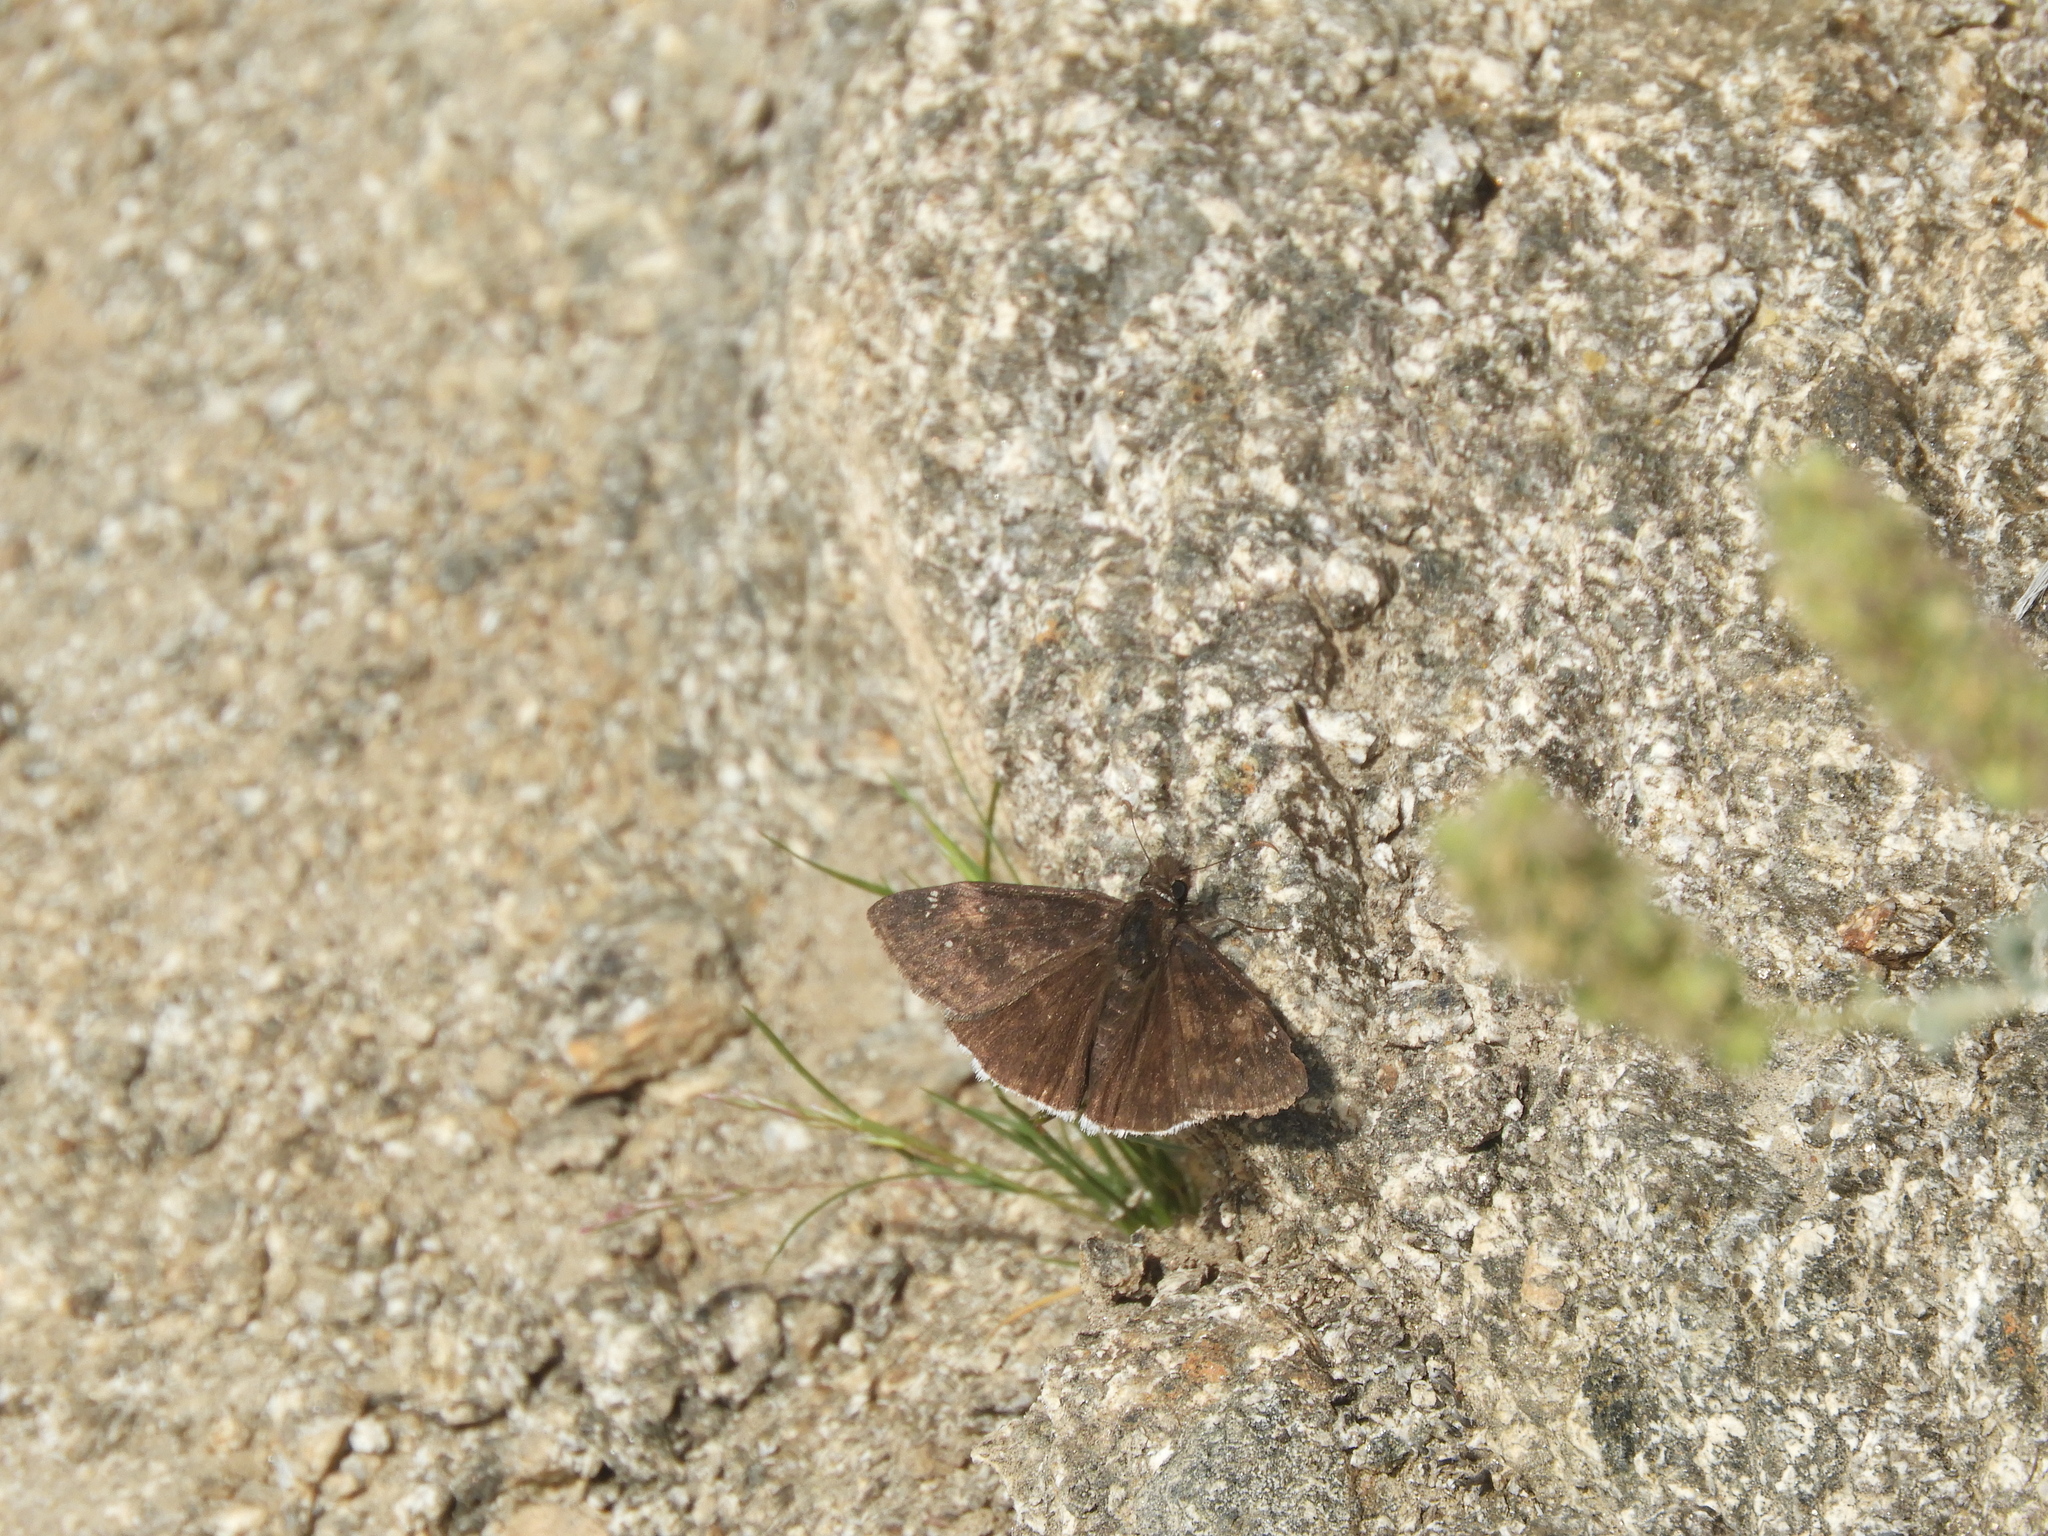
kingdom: Animalia
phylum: Arthropoda
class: Insecta
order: Lepidoptera
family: Hesperiidae
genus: Erynnis
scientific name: Erynnis funeralis
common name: Funereal duskywing
